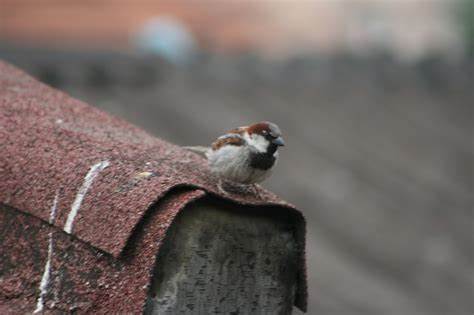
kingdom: Animalia
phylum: Chordata
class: Aves
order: Passeriformes
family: Passeridae
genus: Passer
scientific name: Passer domesticus
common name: House sparrow
